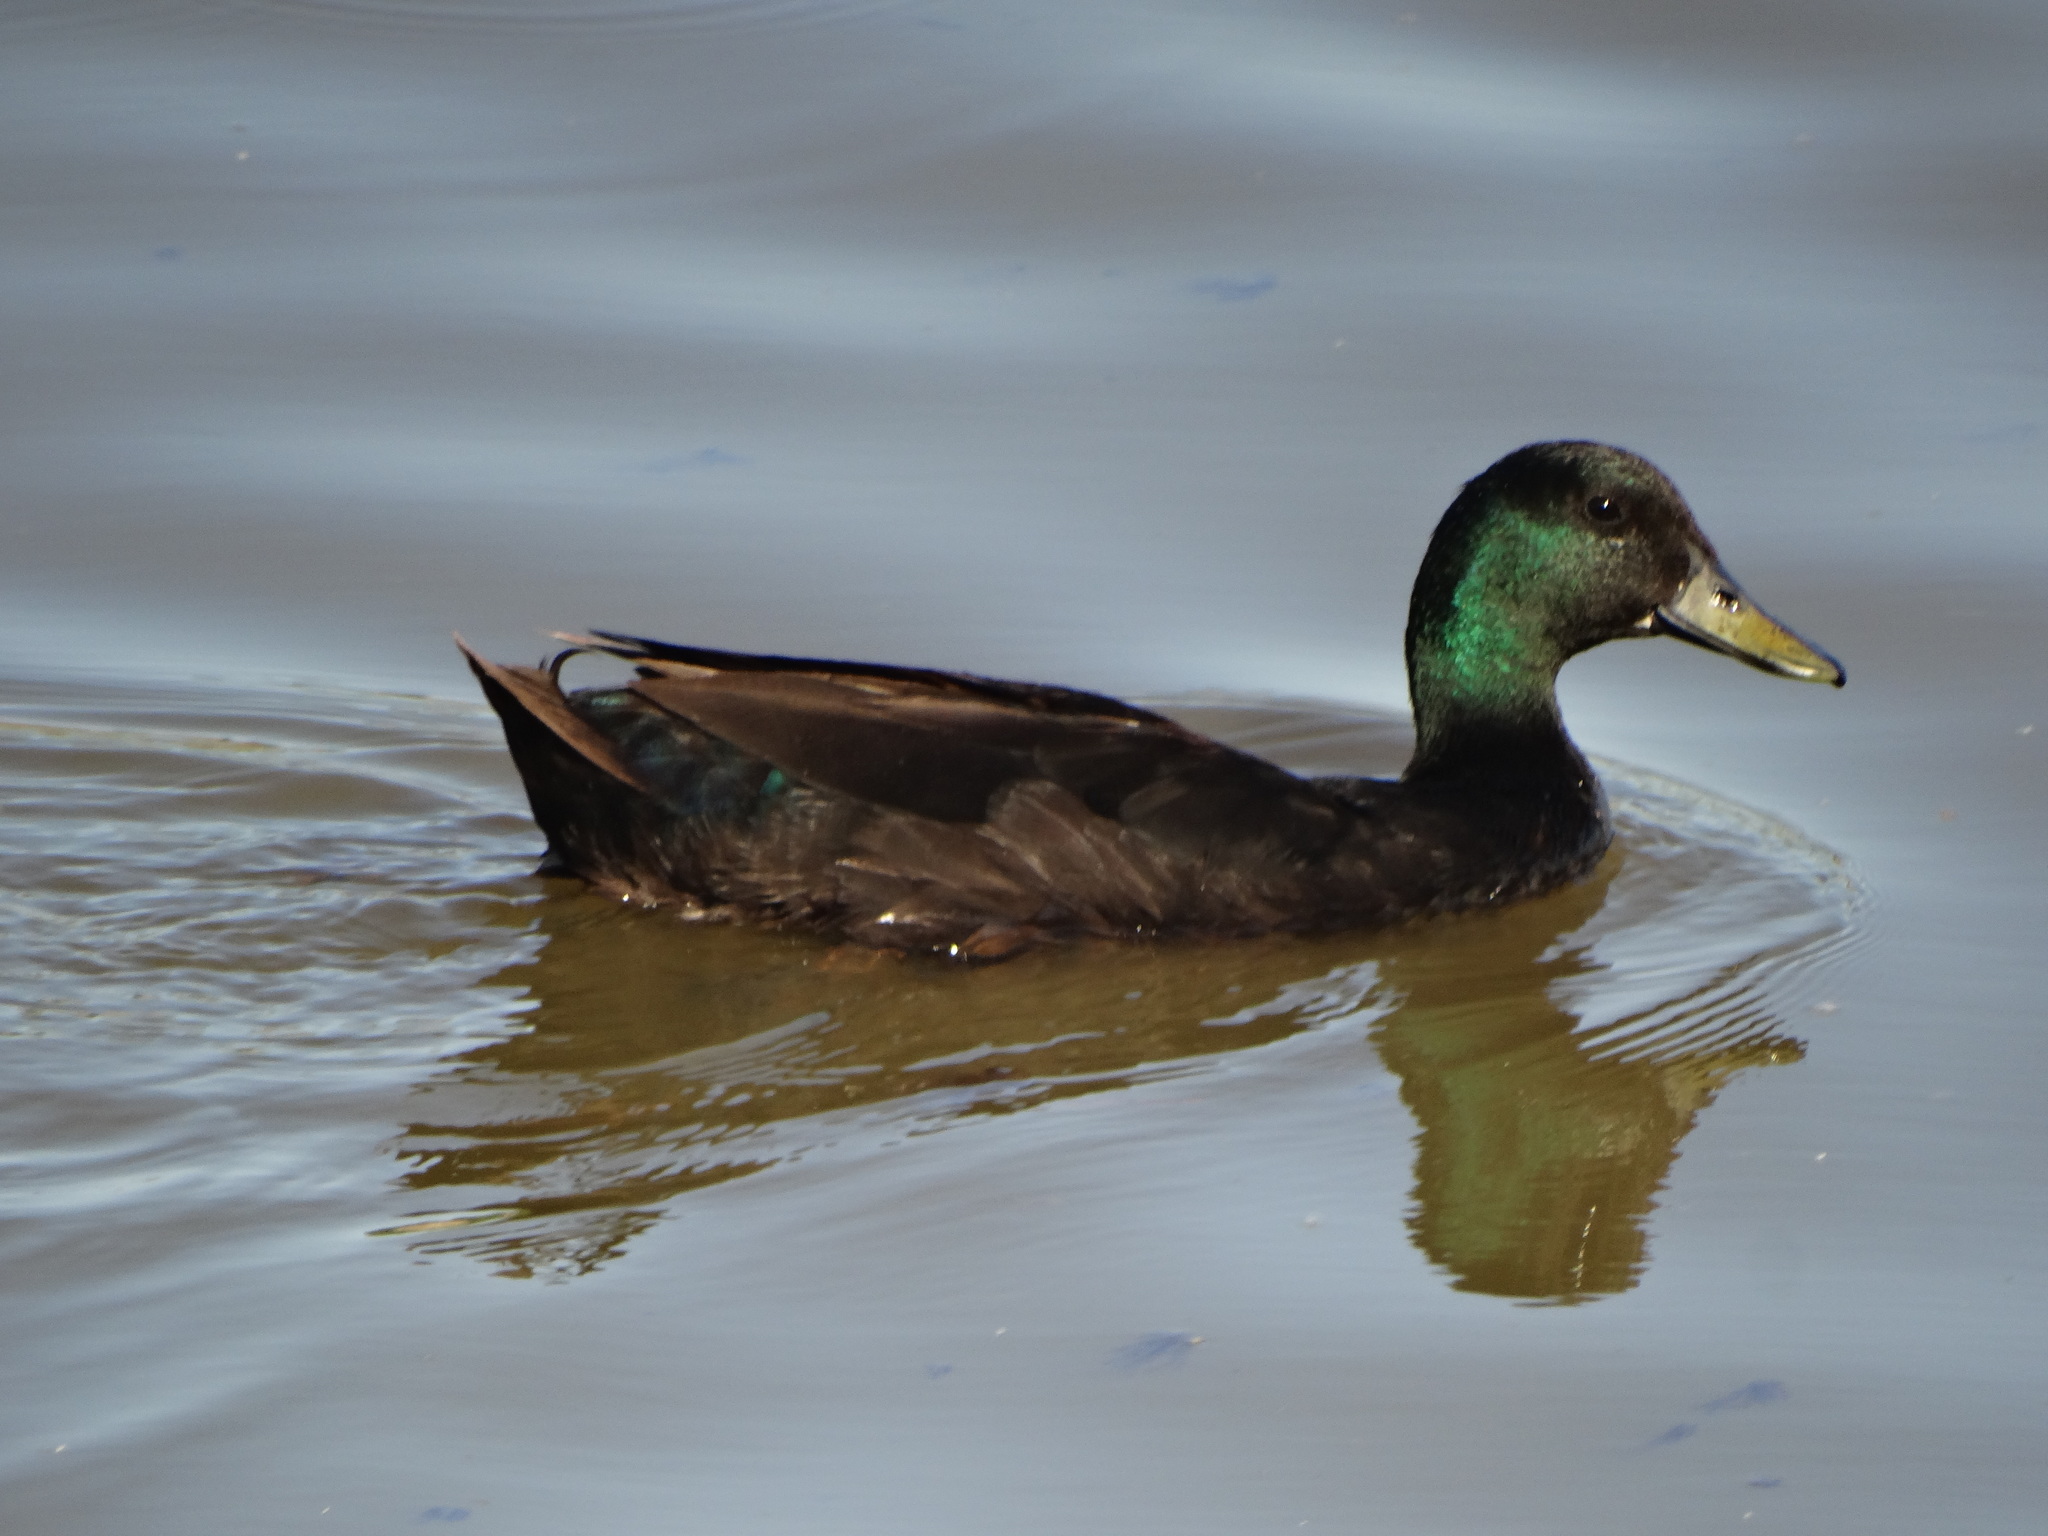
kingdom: Animalia
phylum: Chordata
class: Aves
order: Anseriformes
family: Anatidae
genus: Anas
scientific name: Anas platyrhynchos
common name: Mallard
